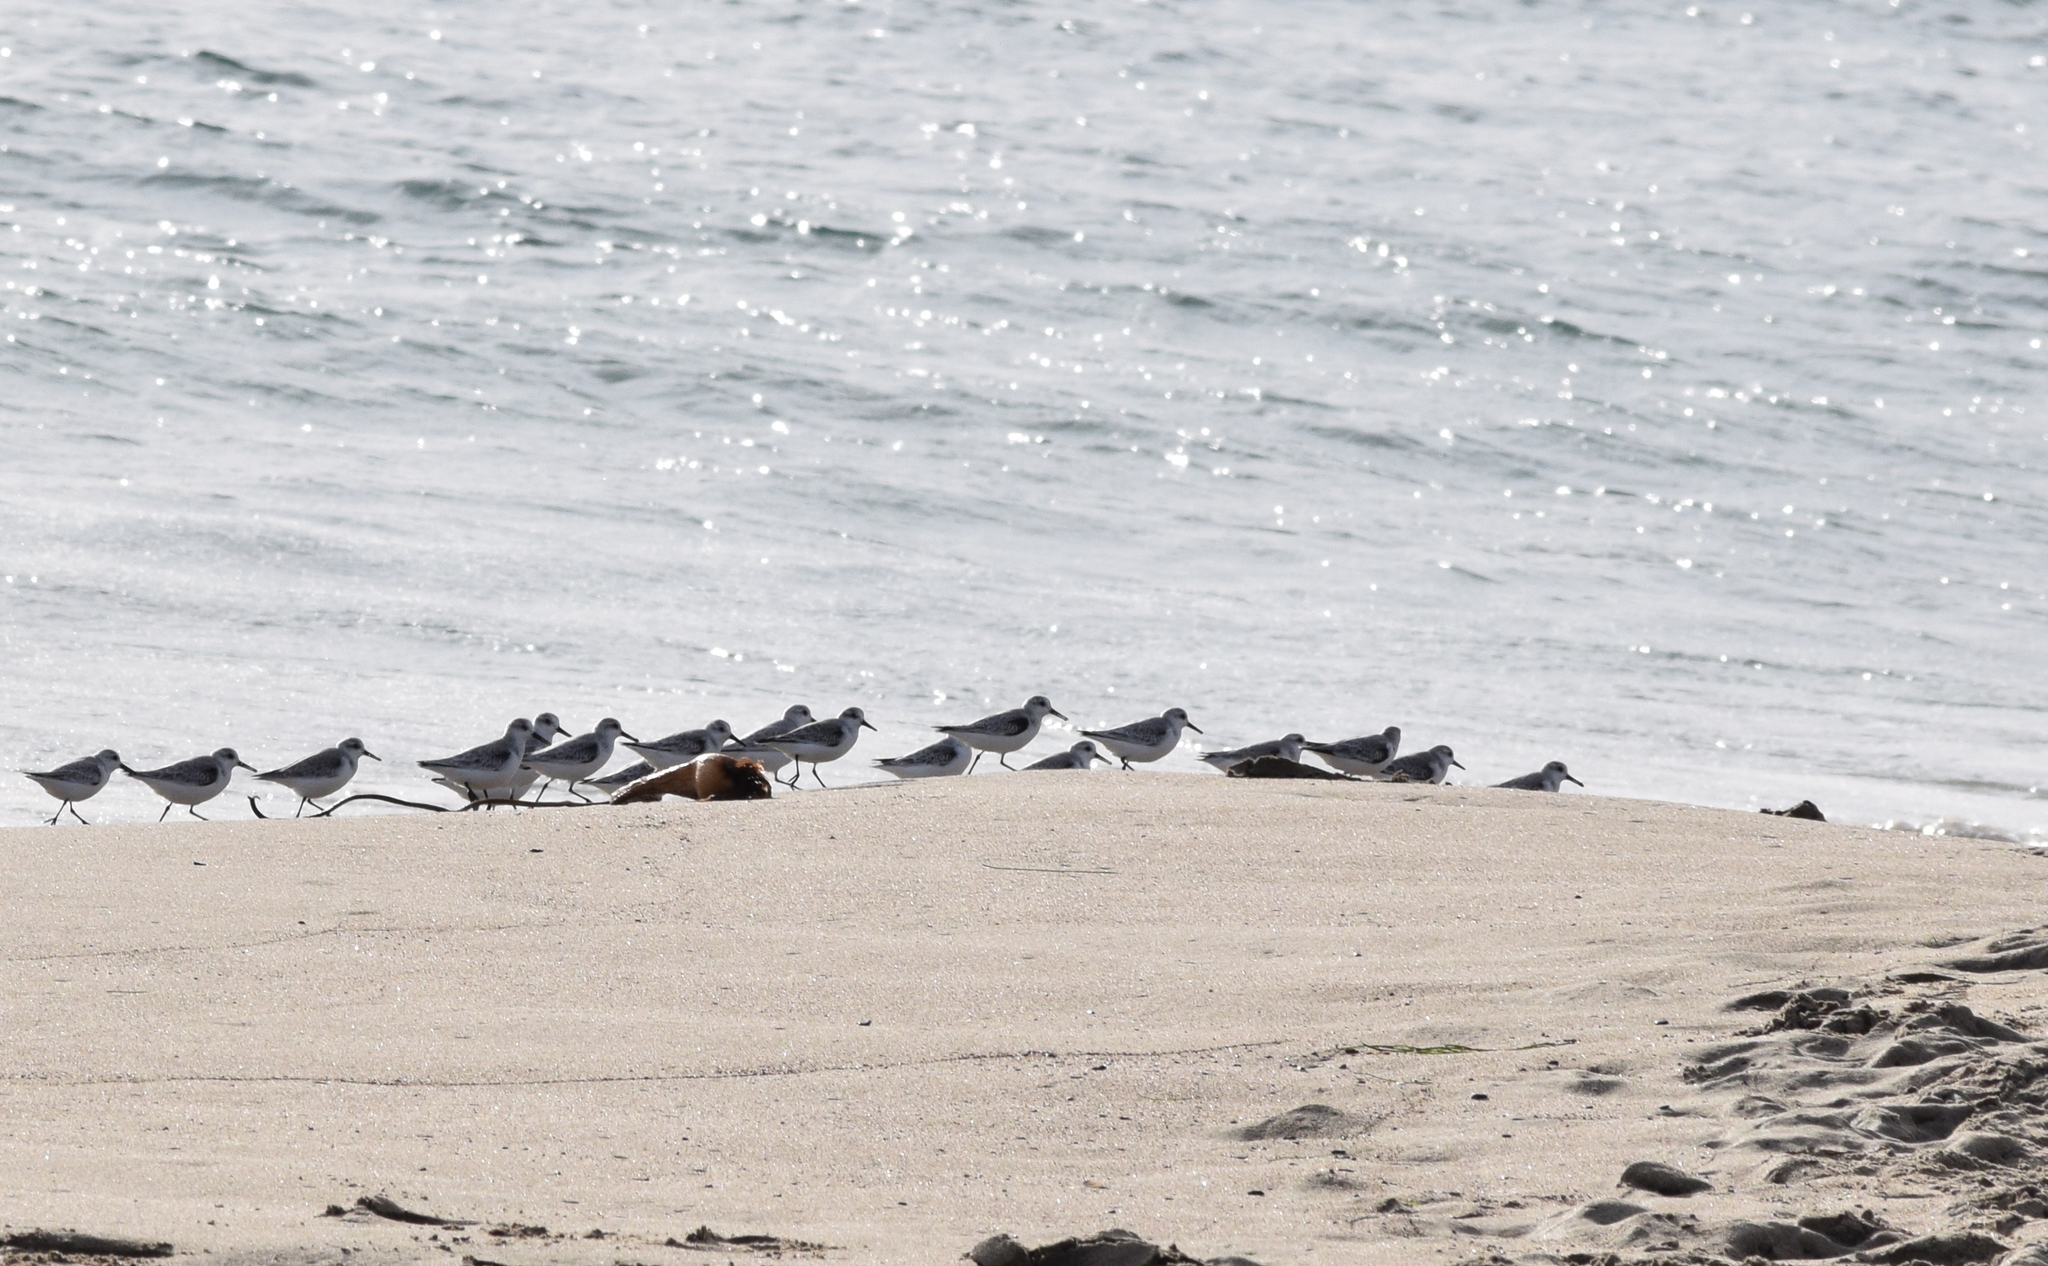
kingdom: Animalia
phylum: Chordata
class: Aves
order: Charadriiformes
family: Scolopacidae
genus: Calidris
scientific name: Calidris alba
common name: Sanderling
